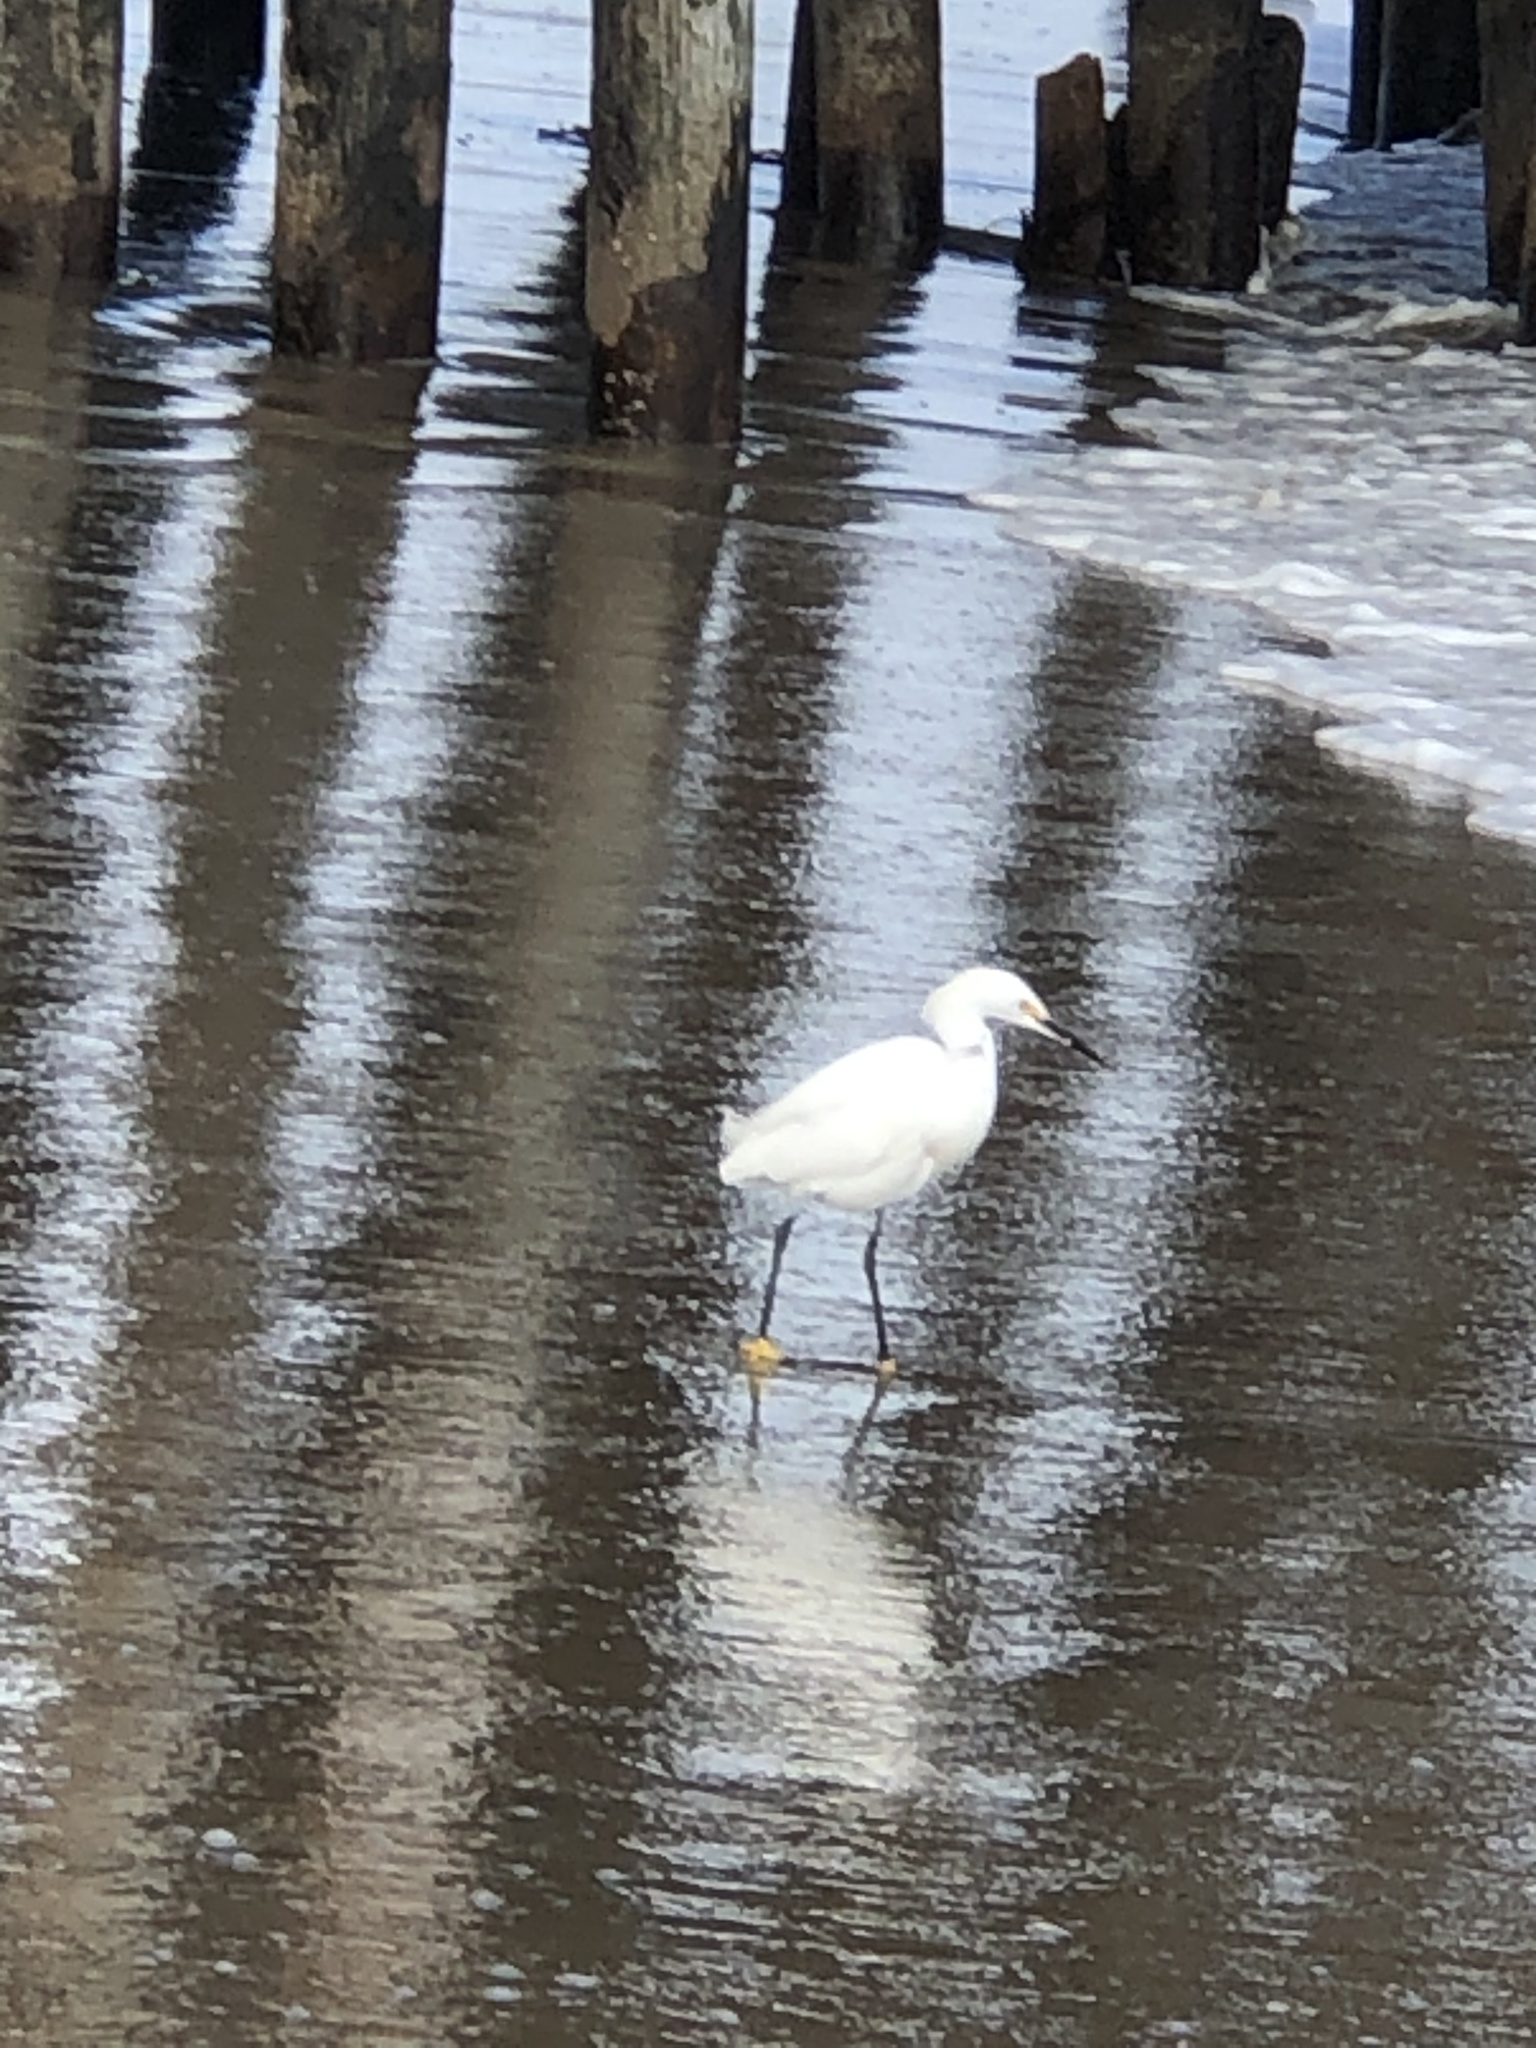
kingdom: Animalia
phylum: Chordata
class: Aves
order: Pelecaniformes
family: Ardeidae
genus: Egretta
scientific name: Egretta thula
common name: Snowy egret
